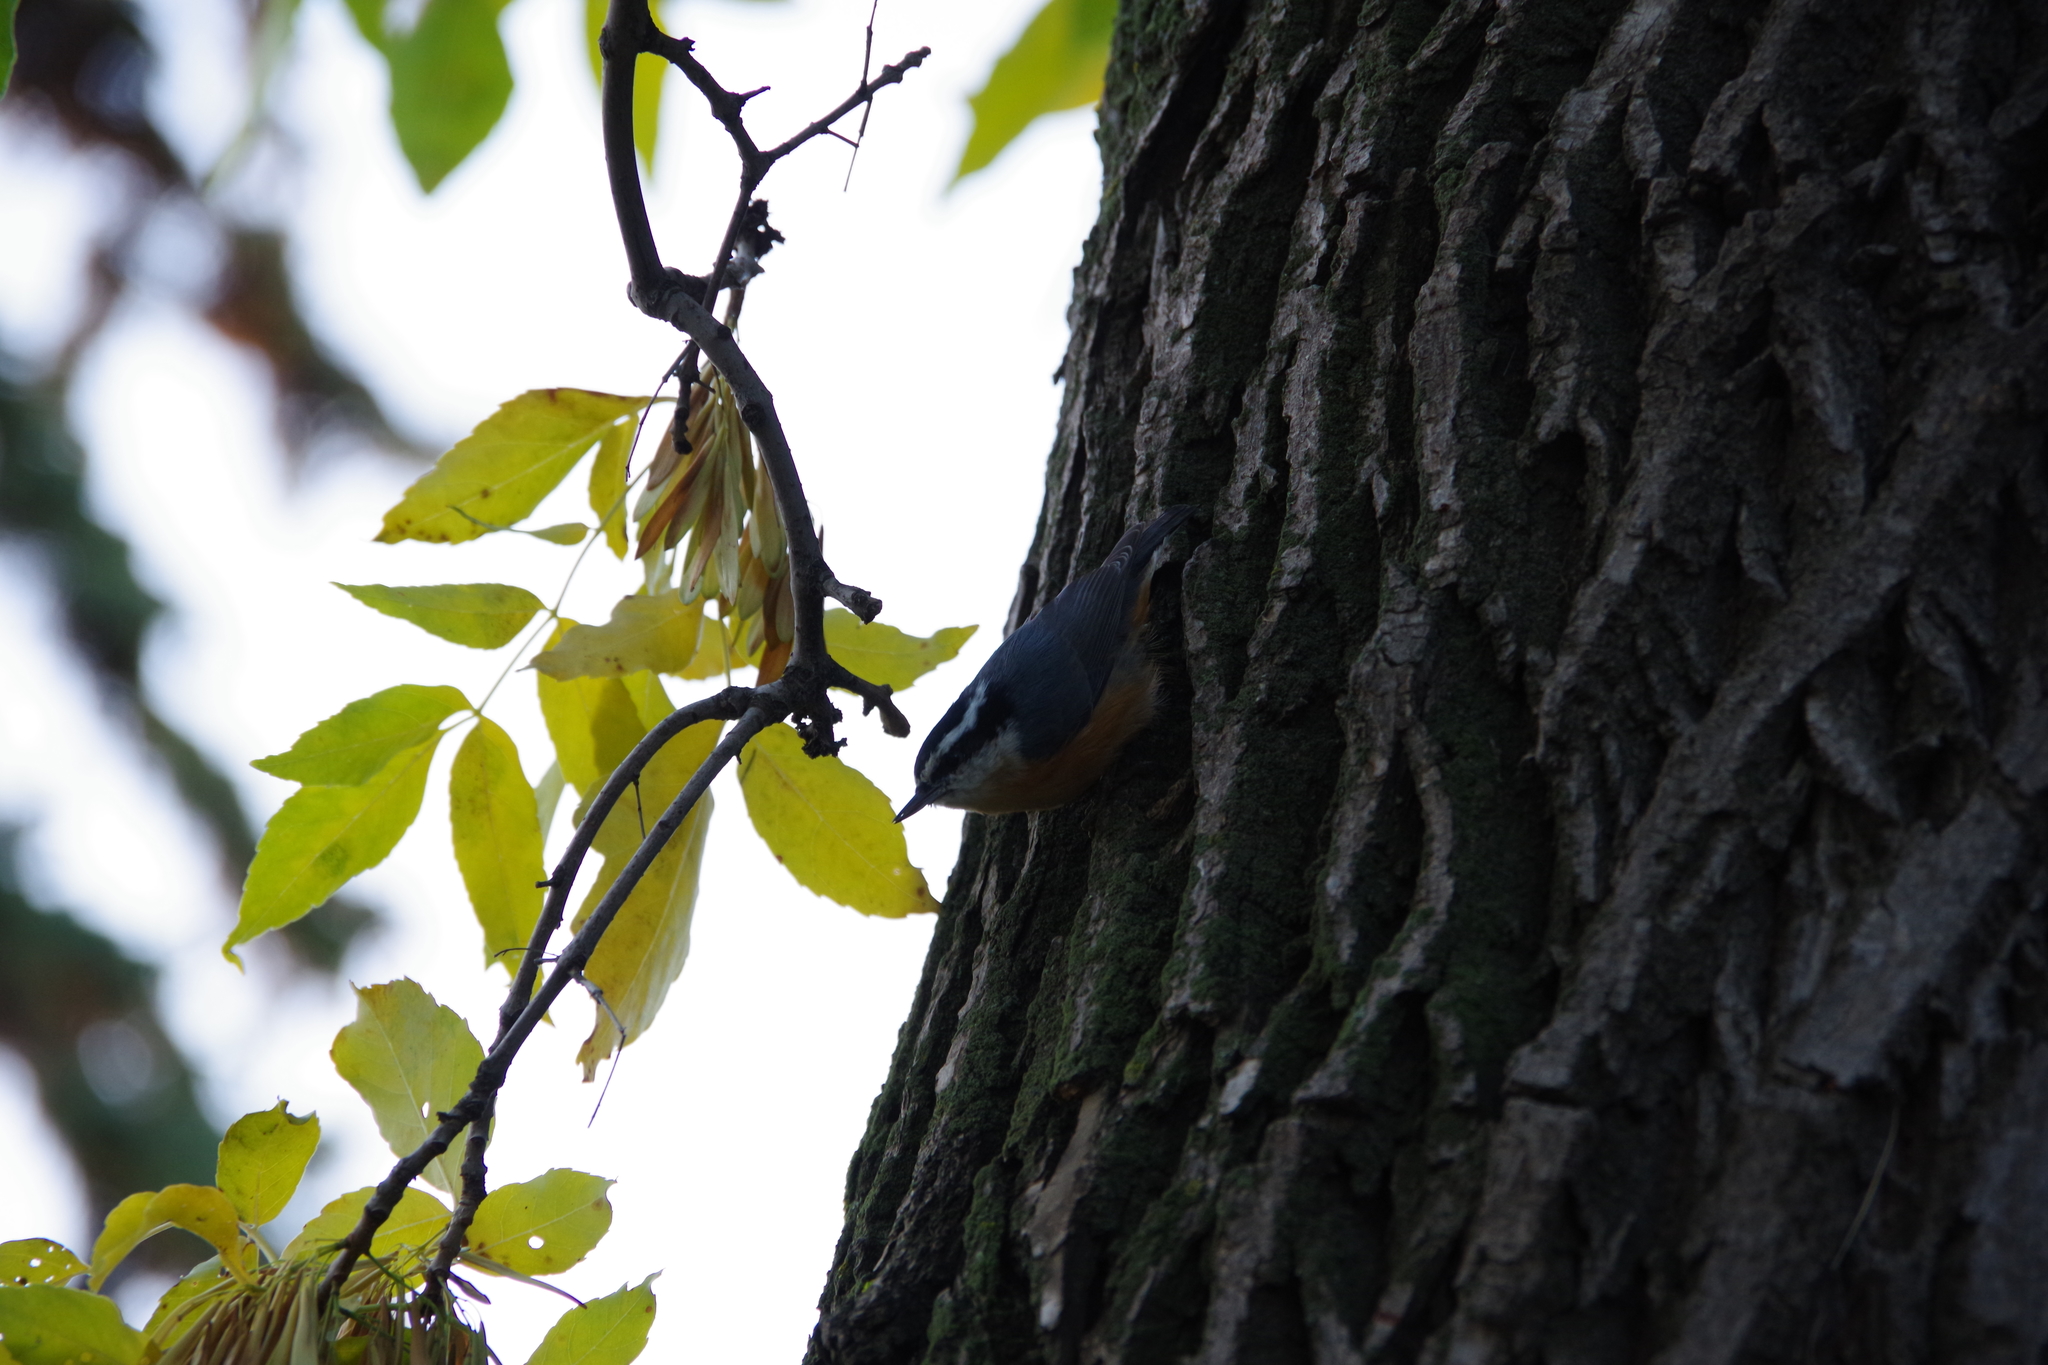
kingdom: Animalia
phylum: Chordata
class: Aves
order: Passeriformes
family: Sittidae
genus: Sitta
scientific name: Sitta canadensis
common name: Red-breasted nuthatch
